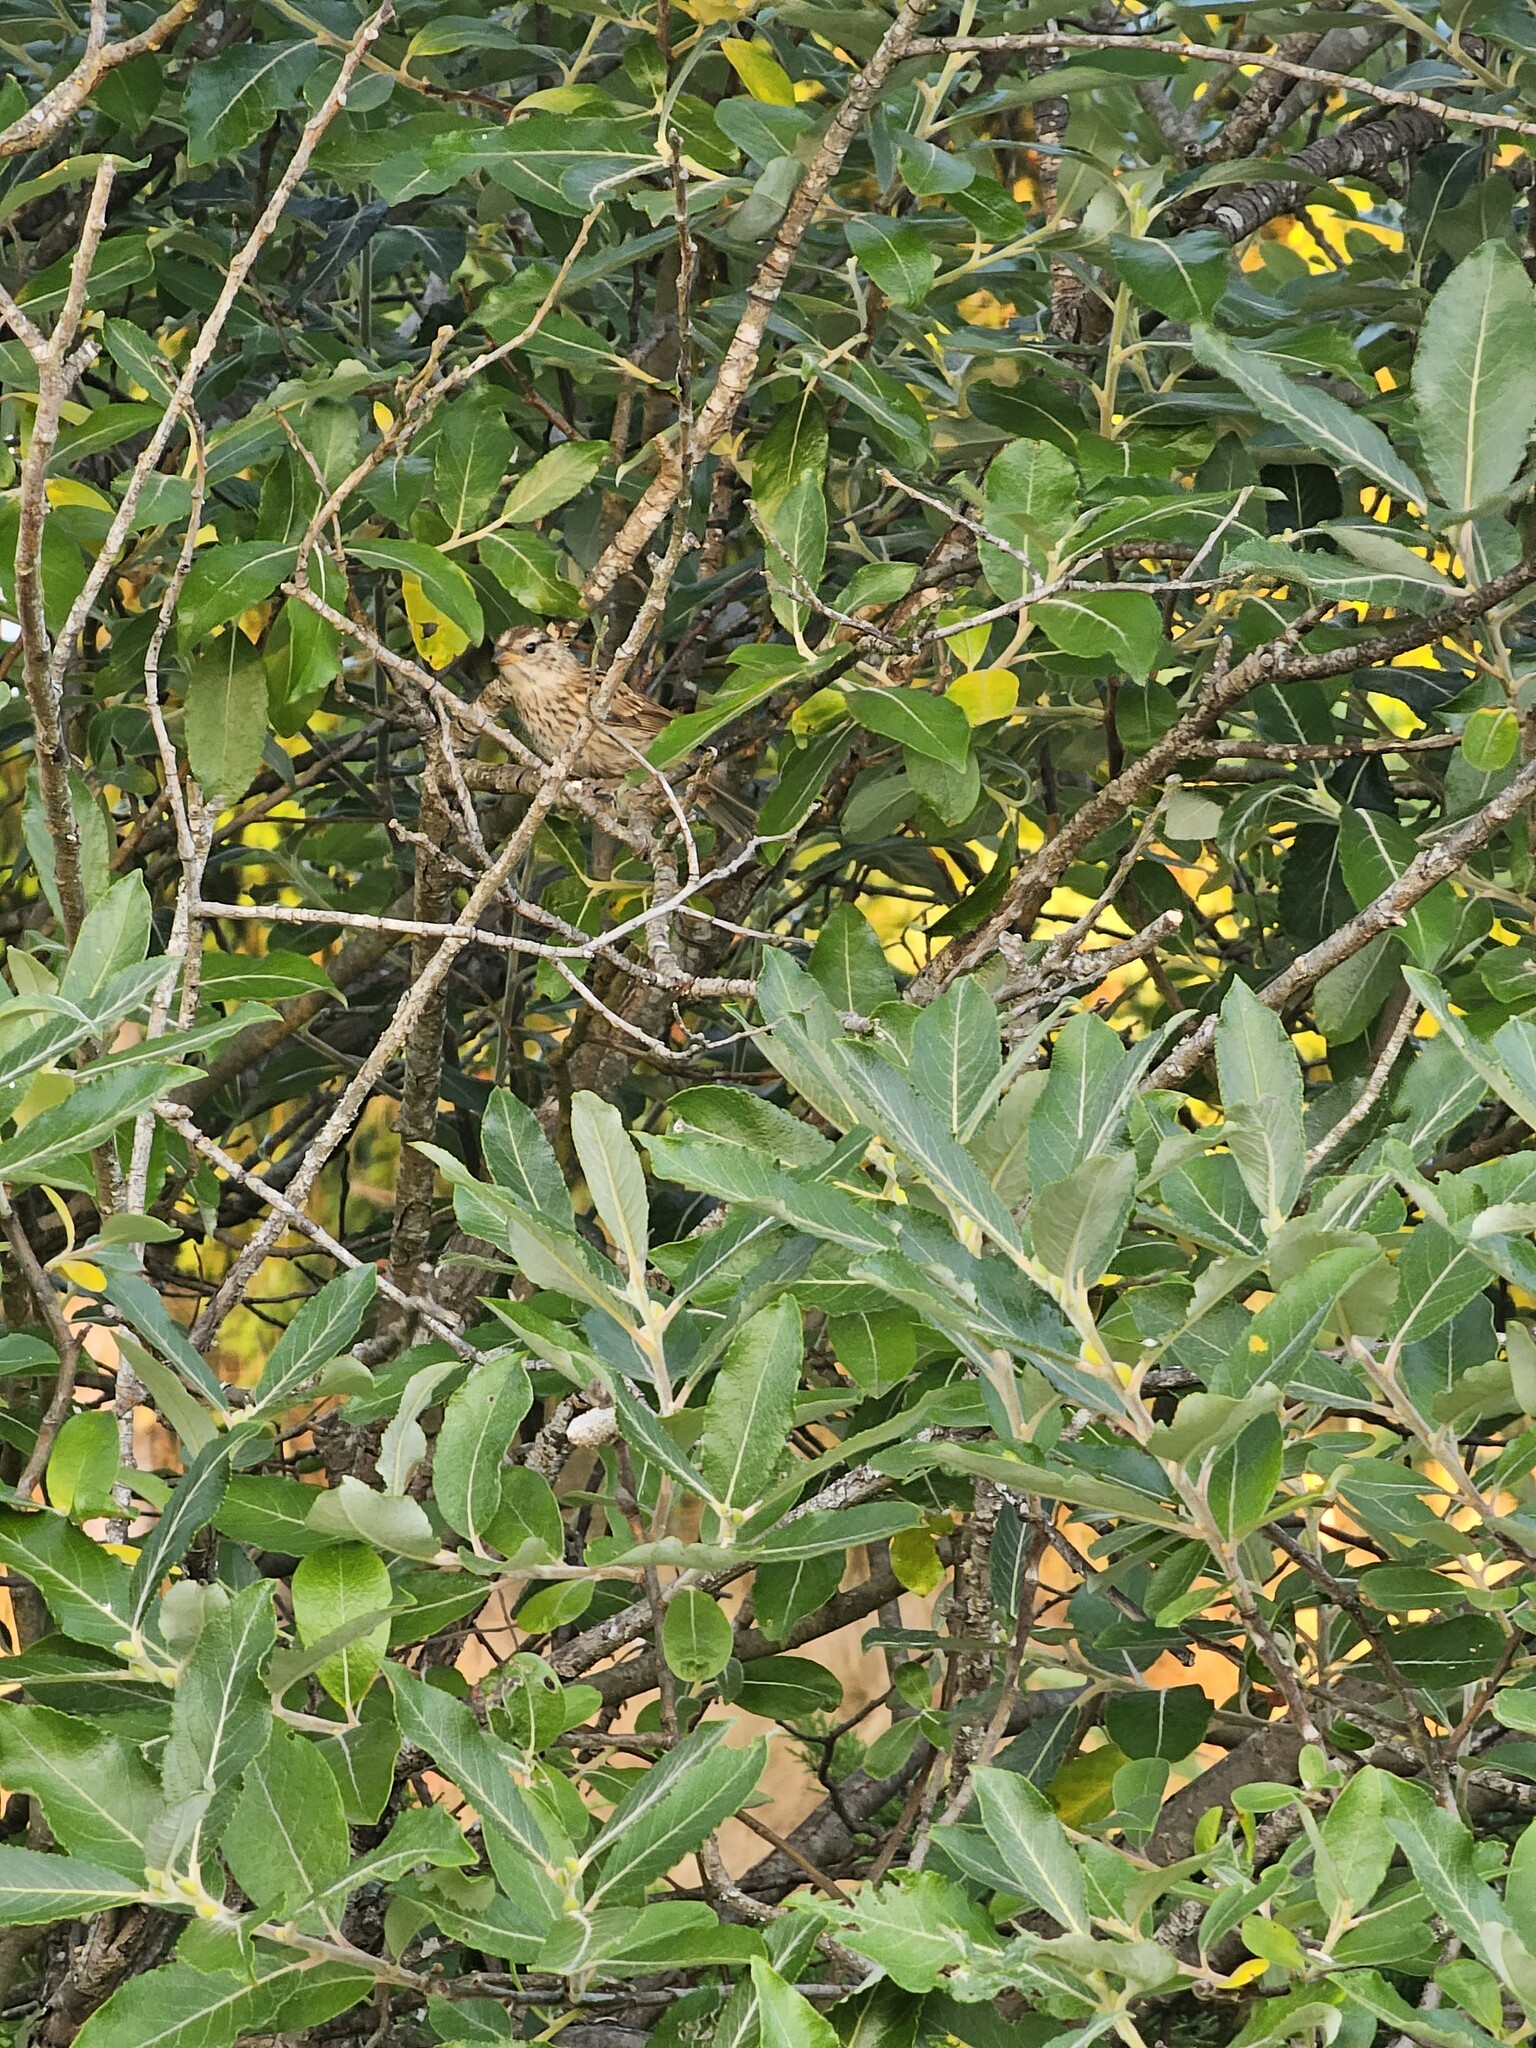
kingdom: Animalia
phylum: Chordata
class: Aves
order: Passeriformes
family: Passerellidae
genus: Zonotrichia
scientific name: Zonotrichia leucophrys
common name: White-crowned sparrow
